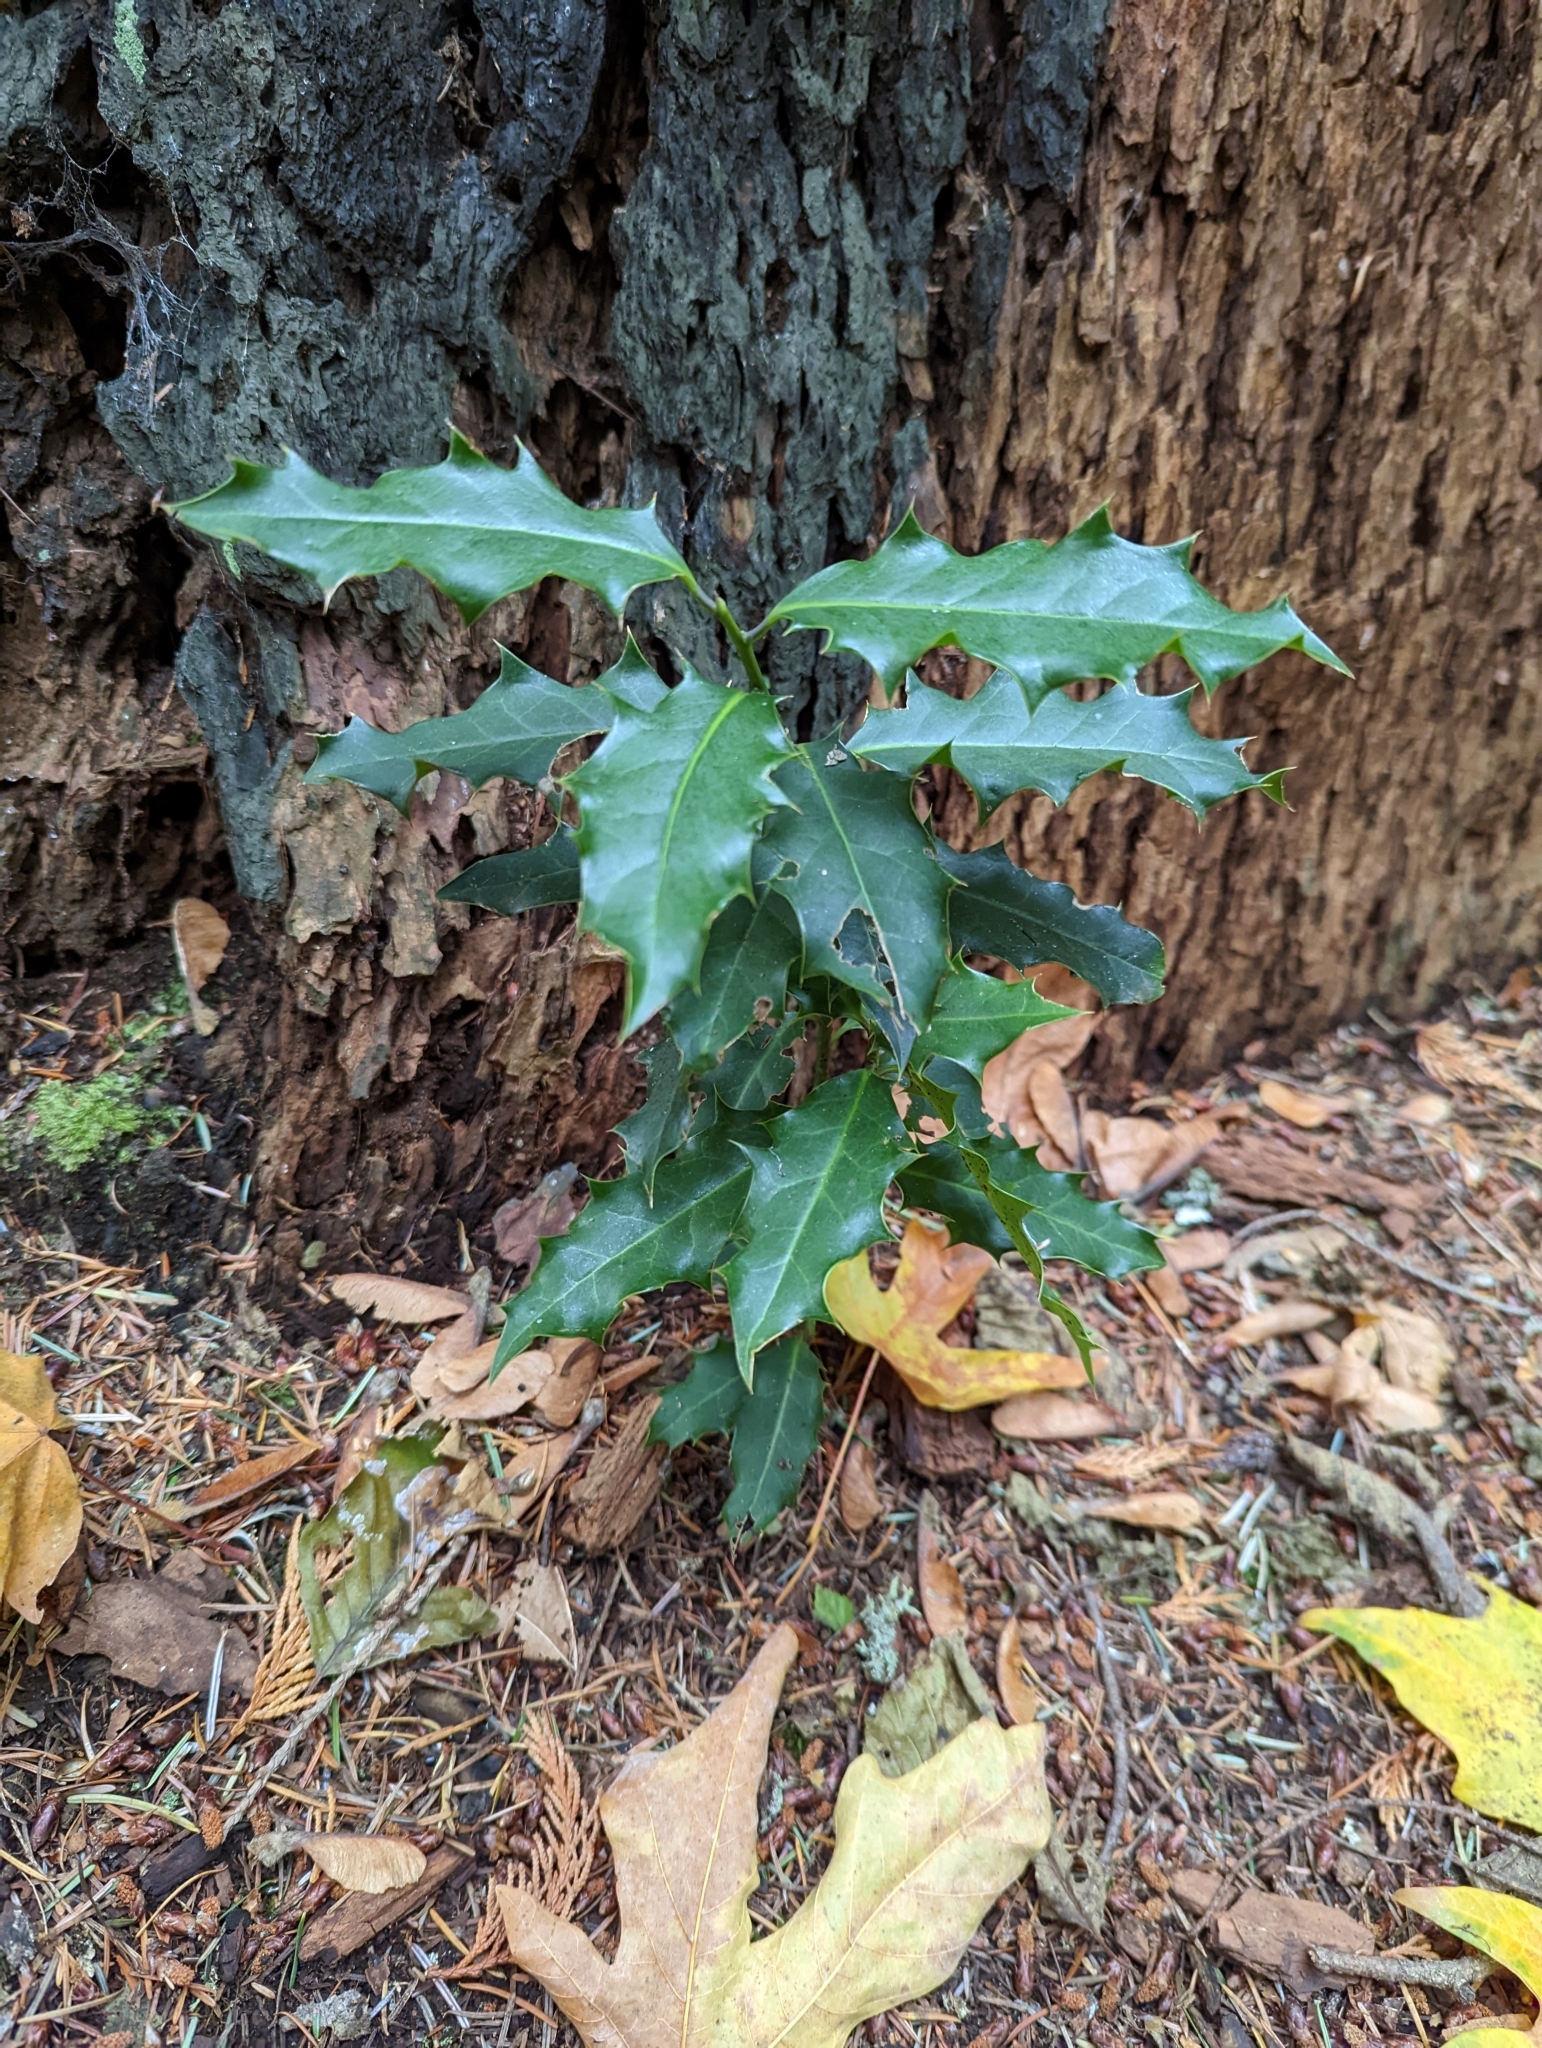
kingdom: Plantae
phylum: Tracheophyta
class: Magnoliopsida
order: Aquifoliales
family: Aquifoliaceae
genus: Ilex
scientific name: Ilex aquifolium
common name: English holly
